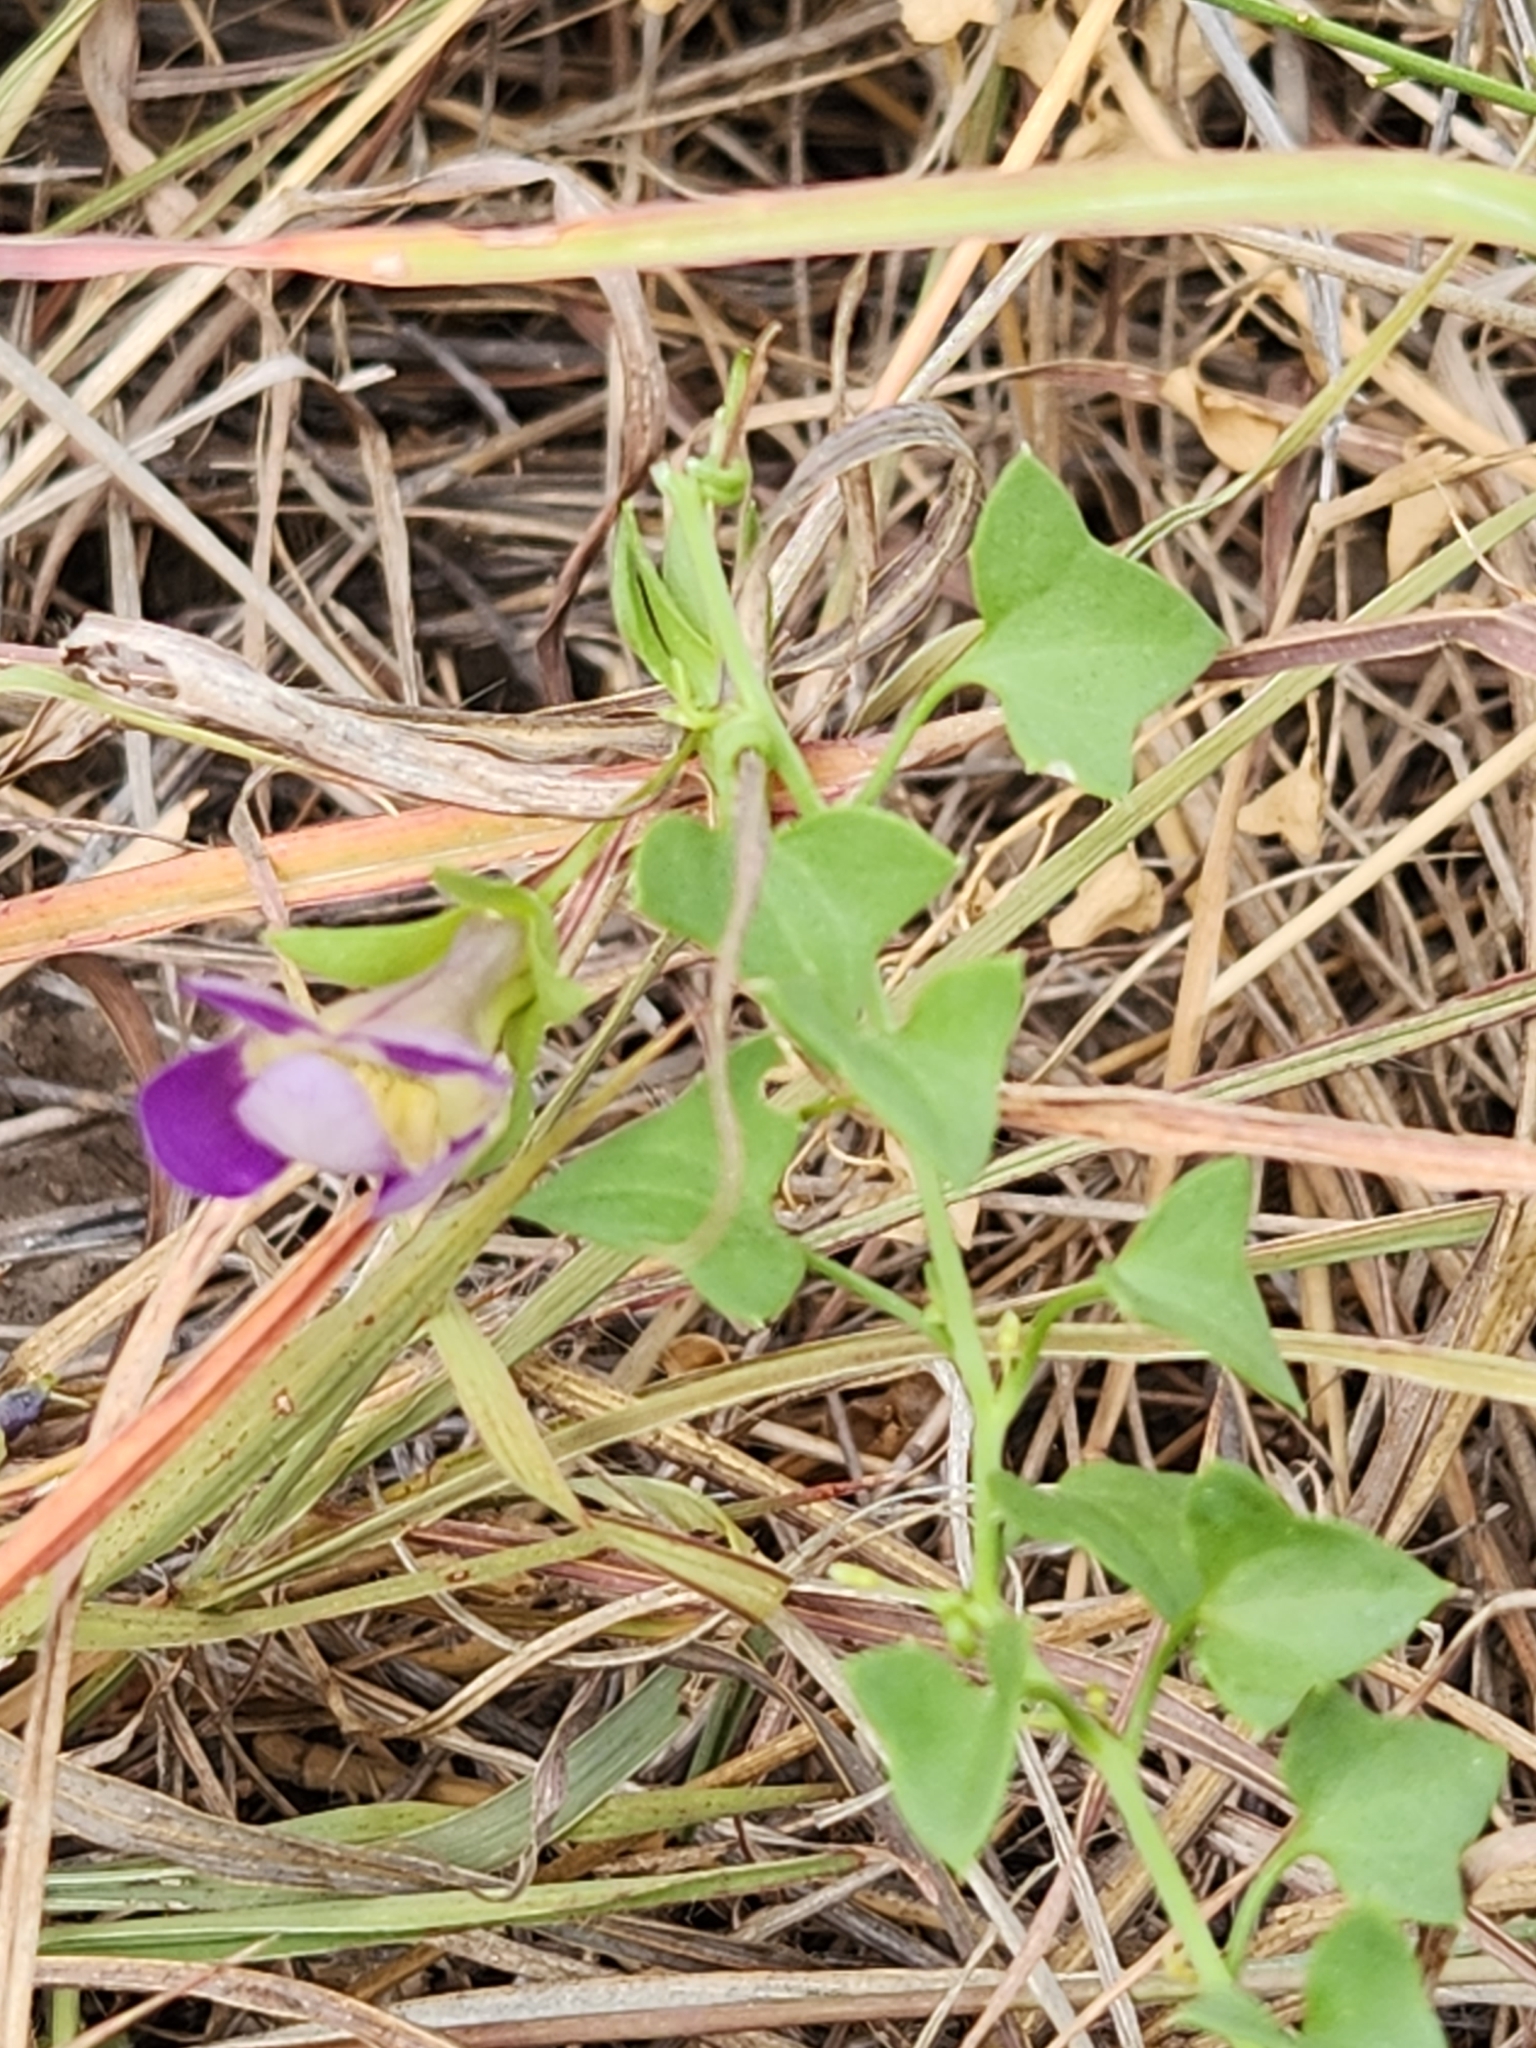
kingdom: Plantae
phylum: Tracheophyta
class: Magnoliopsida
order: Lamiales
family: Plantaginaceae
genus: Maurandella
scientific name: Maurandella antirrhiniflora
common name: Violet twining-snapdragon
